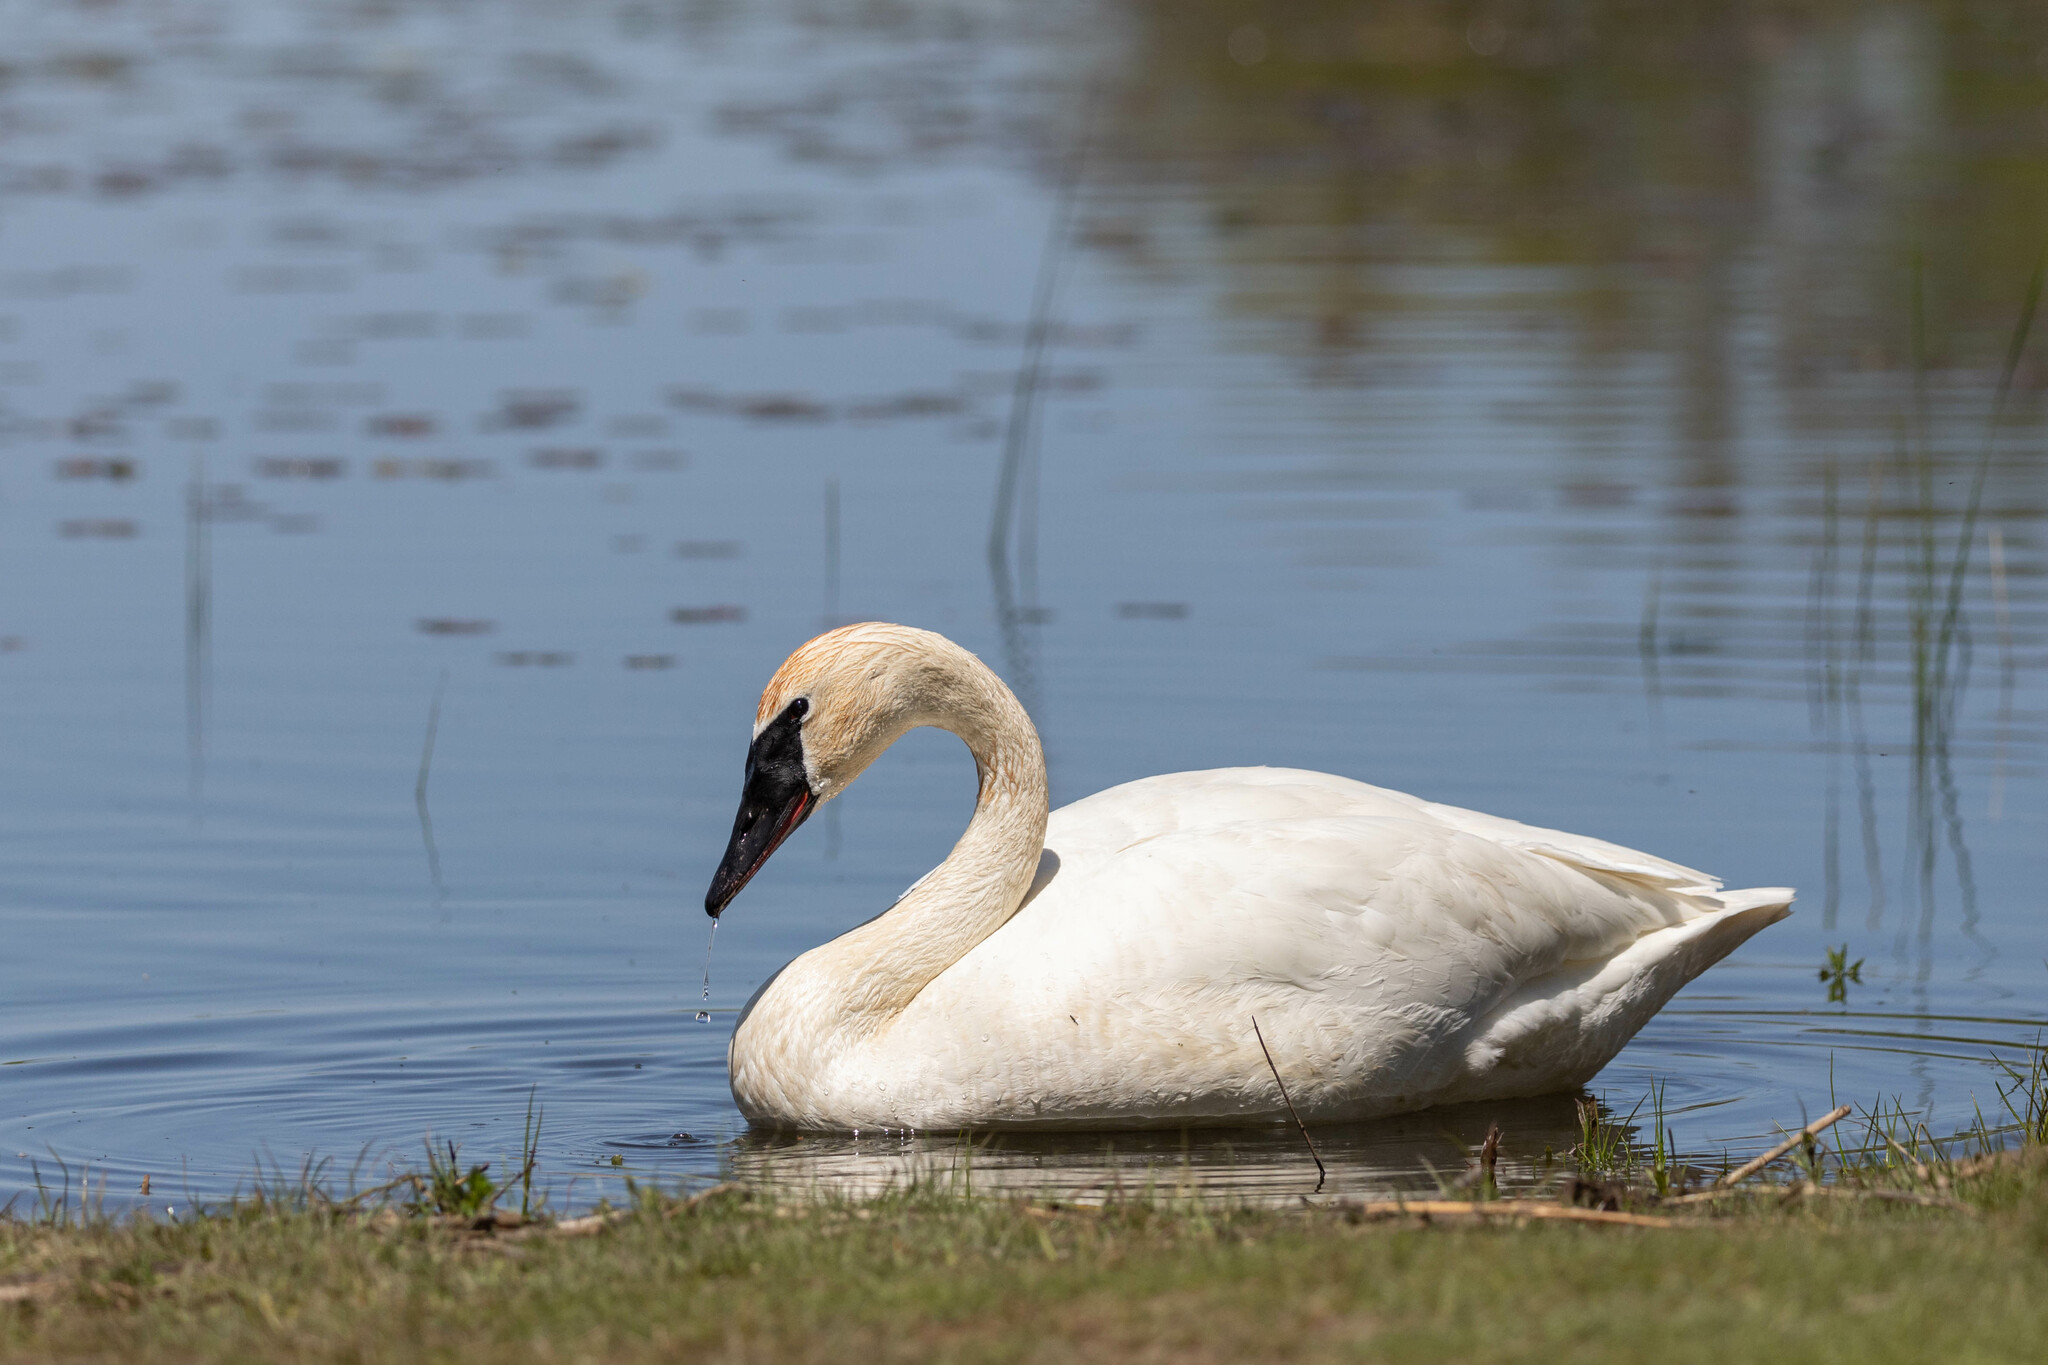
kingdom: Animalia
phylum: Chordata
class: Aves
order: Anseriformes
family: Anatidae
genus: Cygnus
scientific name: Cygnus buccinator
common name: Trumpeter swan
